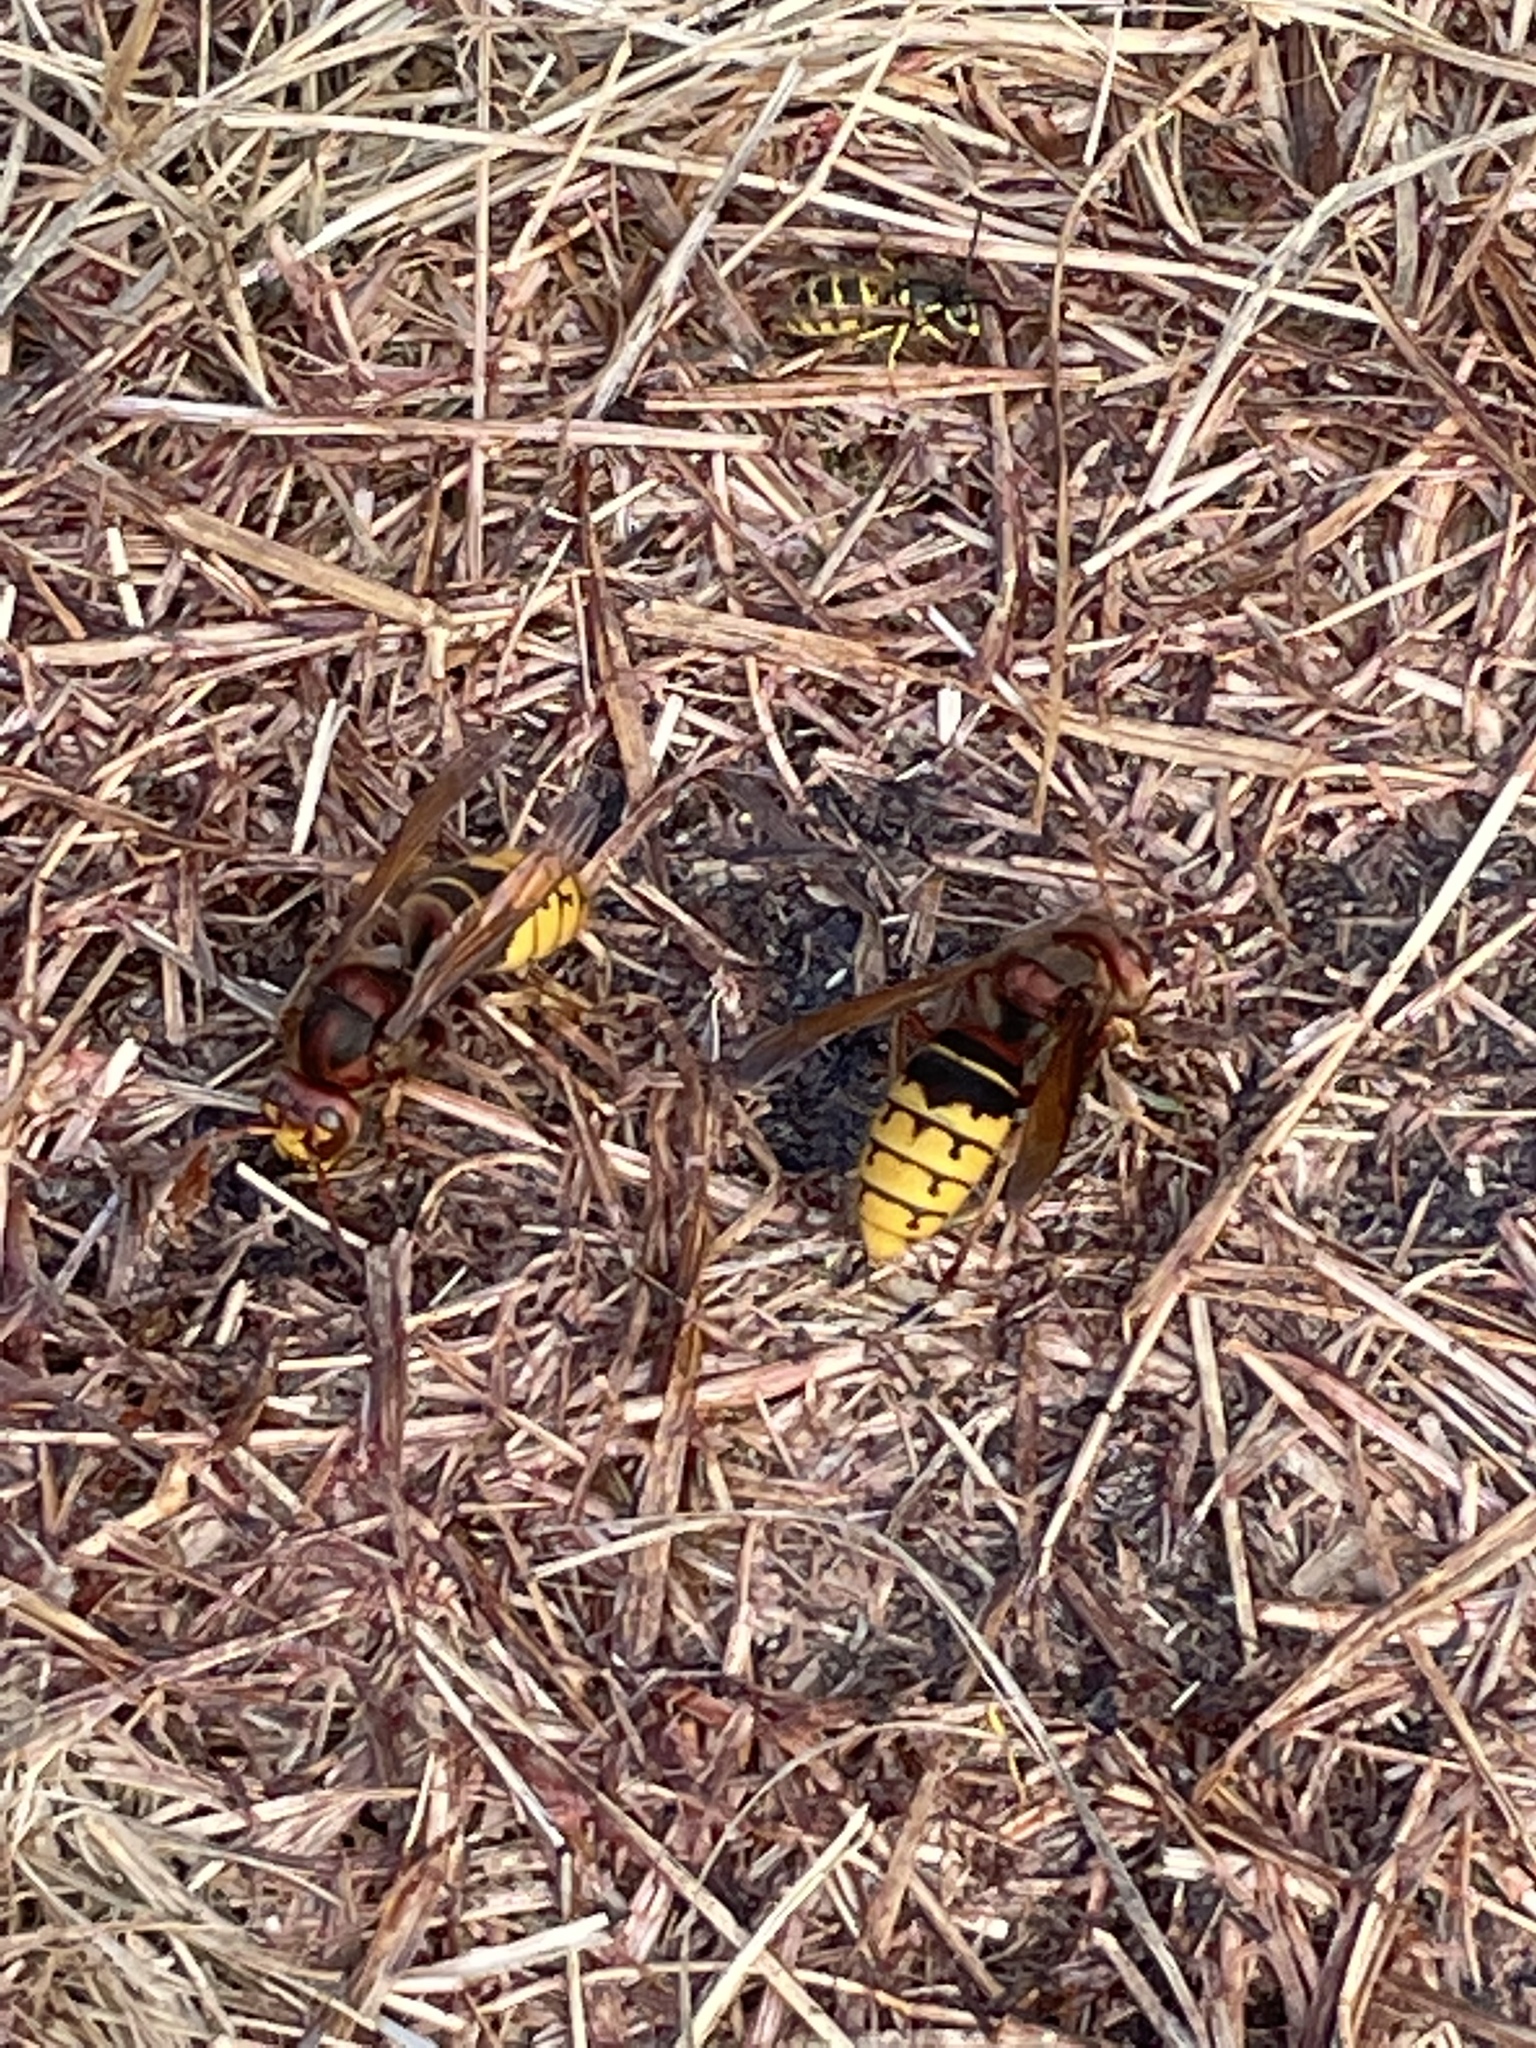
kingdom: Animalia
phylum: Arthropoda
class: Insecta
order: Hymenoptera
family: Vespidae
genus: Vespa
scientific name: Vespa crabro
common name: Hornet
